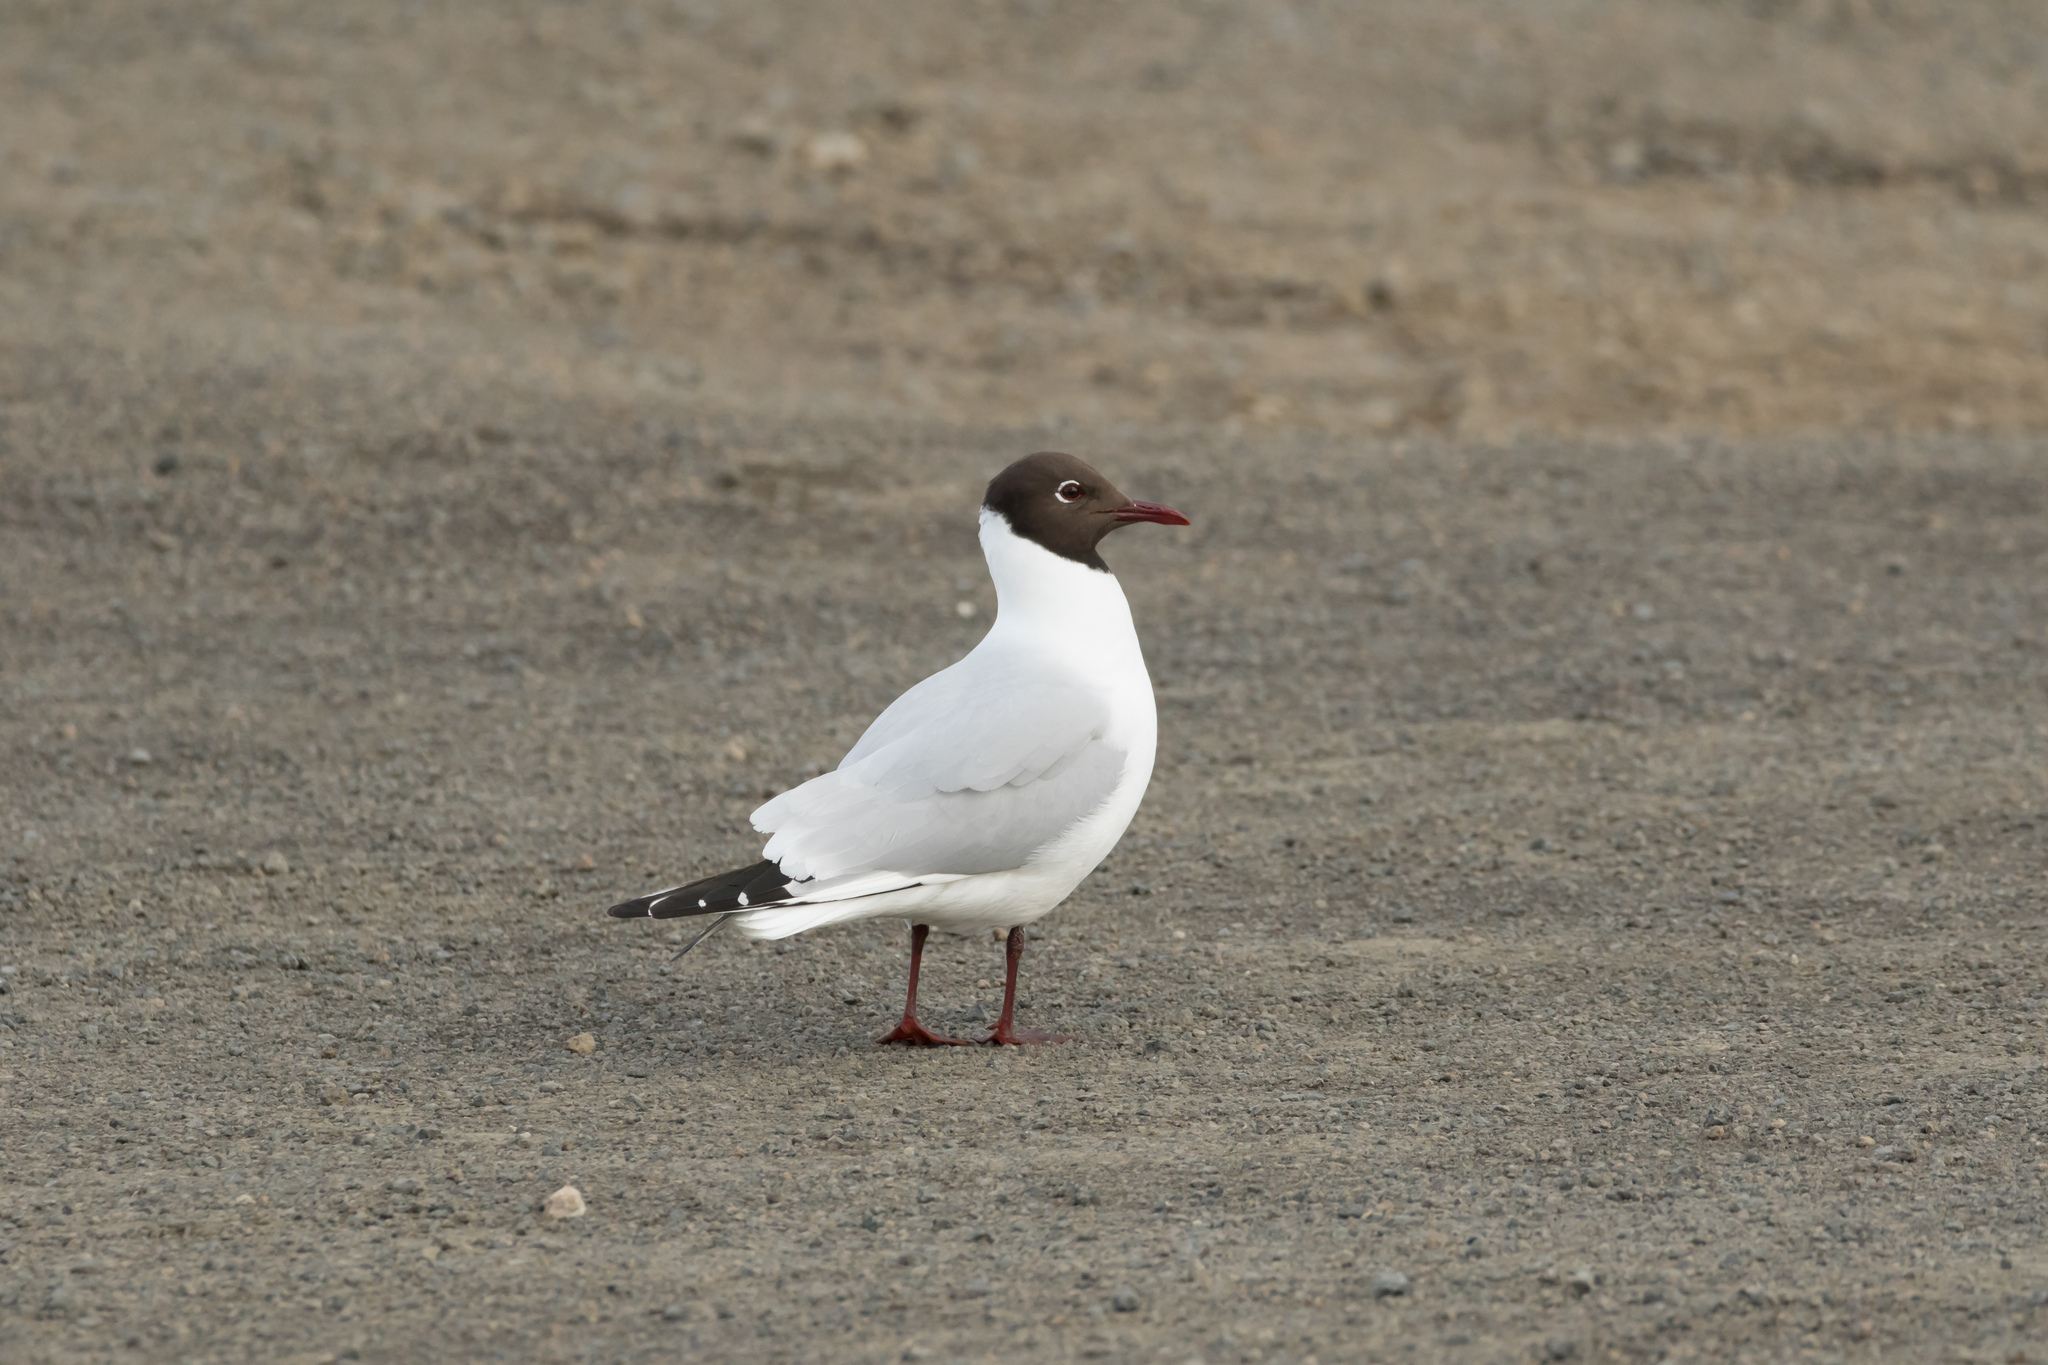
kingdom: Animalia
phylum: Chordata
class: Aves
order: Charadriiformes
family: Laridae
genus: Chroicocephalus
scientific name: Chroicocephalus ridibundus
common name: Black-headed gull
